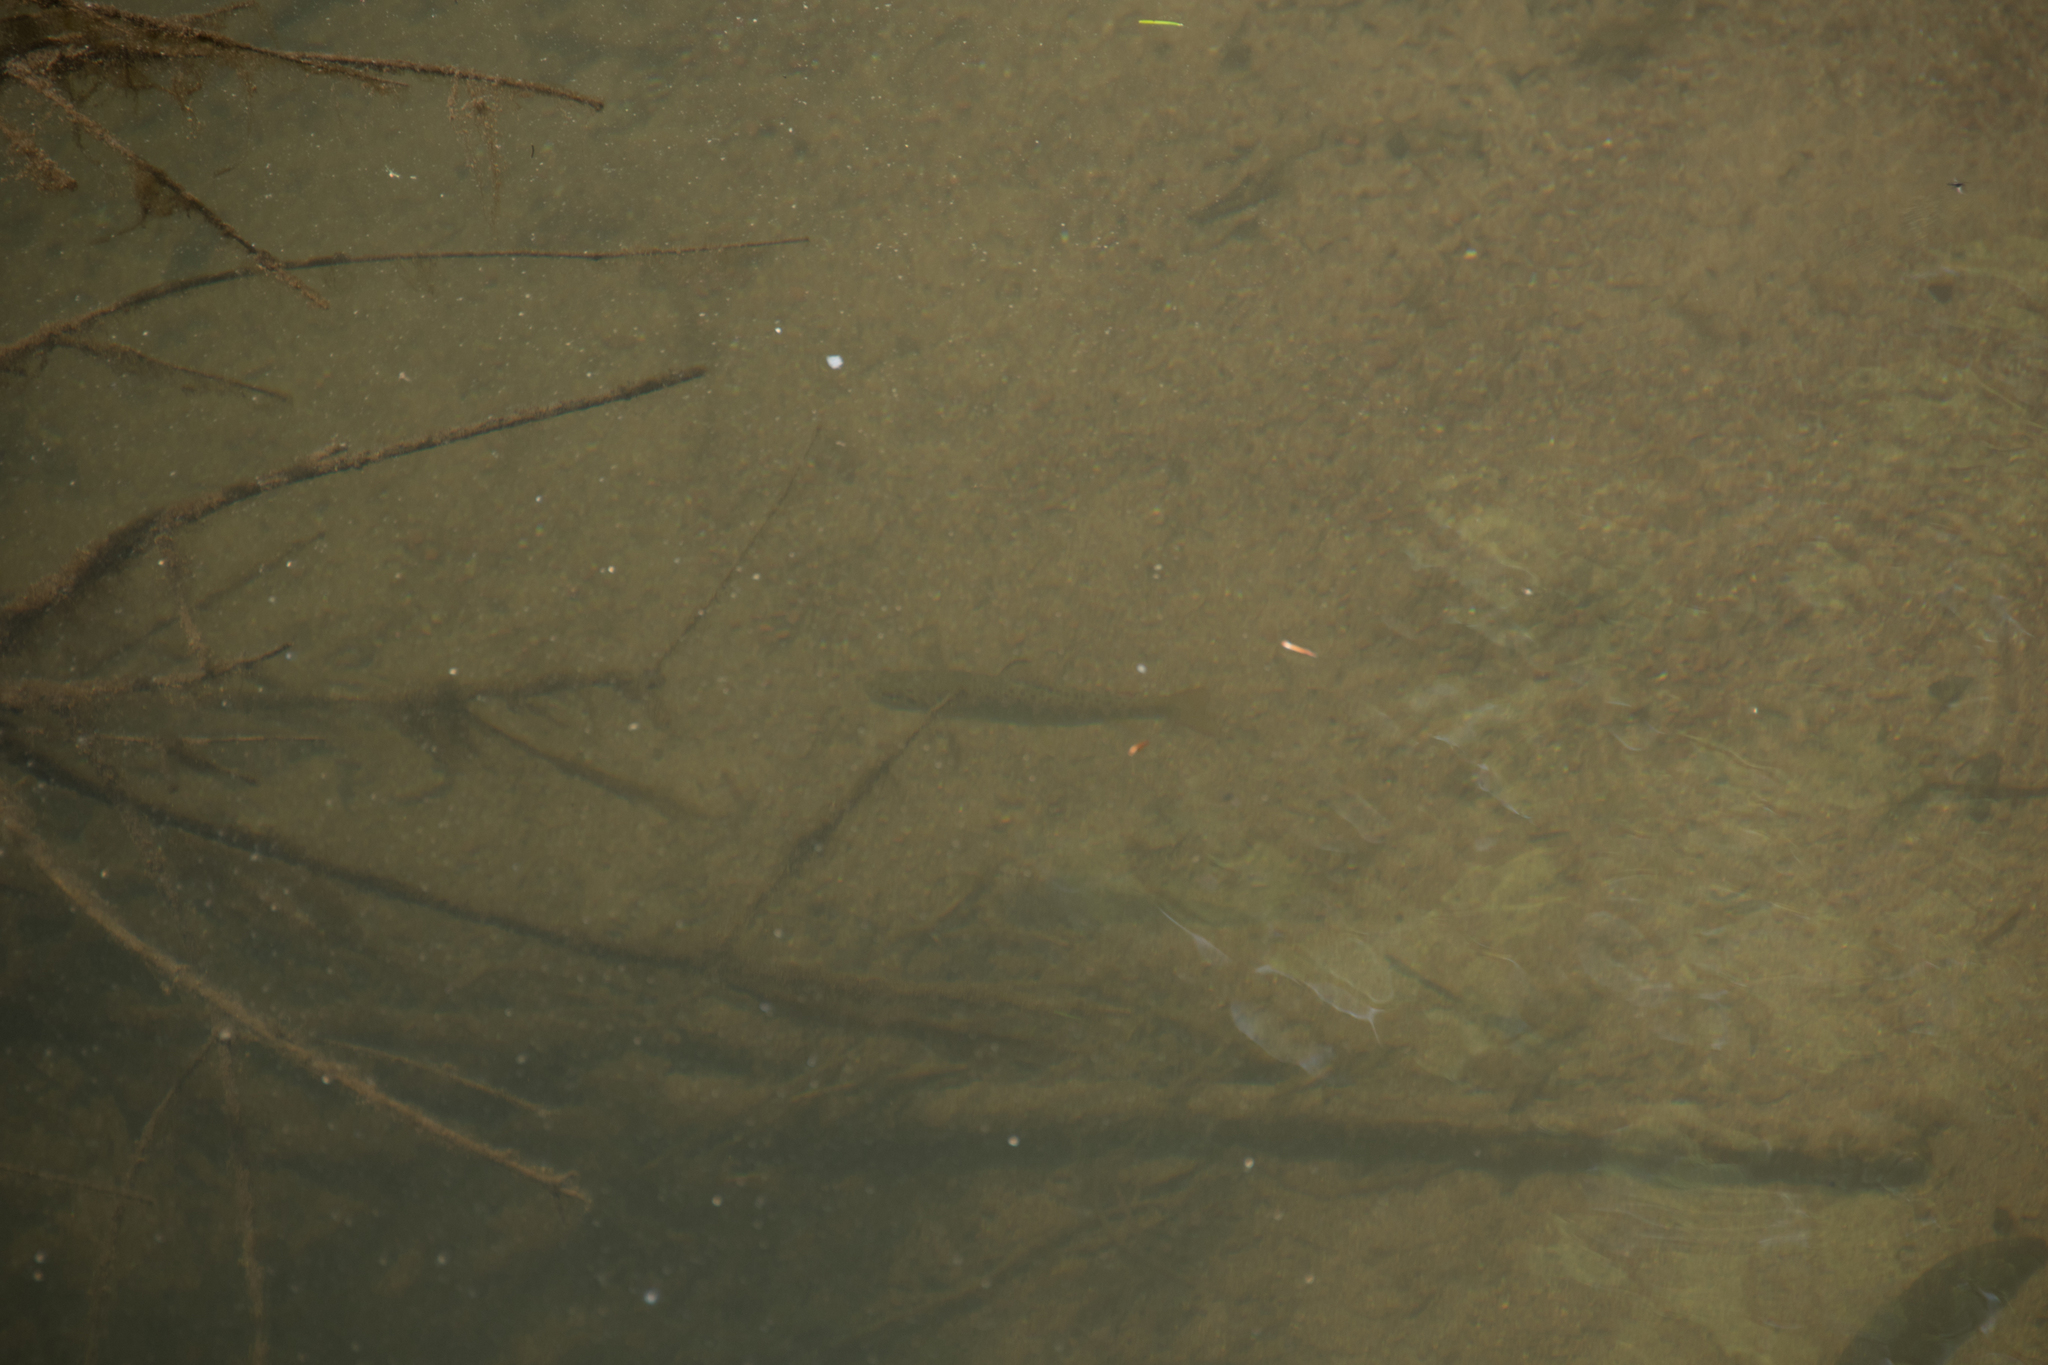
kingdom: Animalia
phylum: Chordata
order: Salmoniformes
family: Salmonidae
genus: Salmo
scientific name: Salmo trutta
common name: Brown trout
